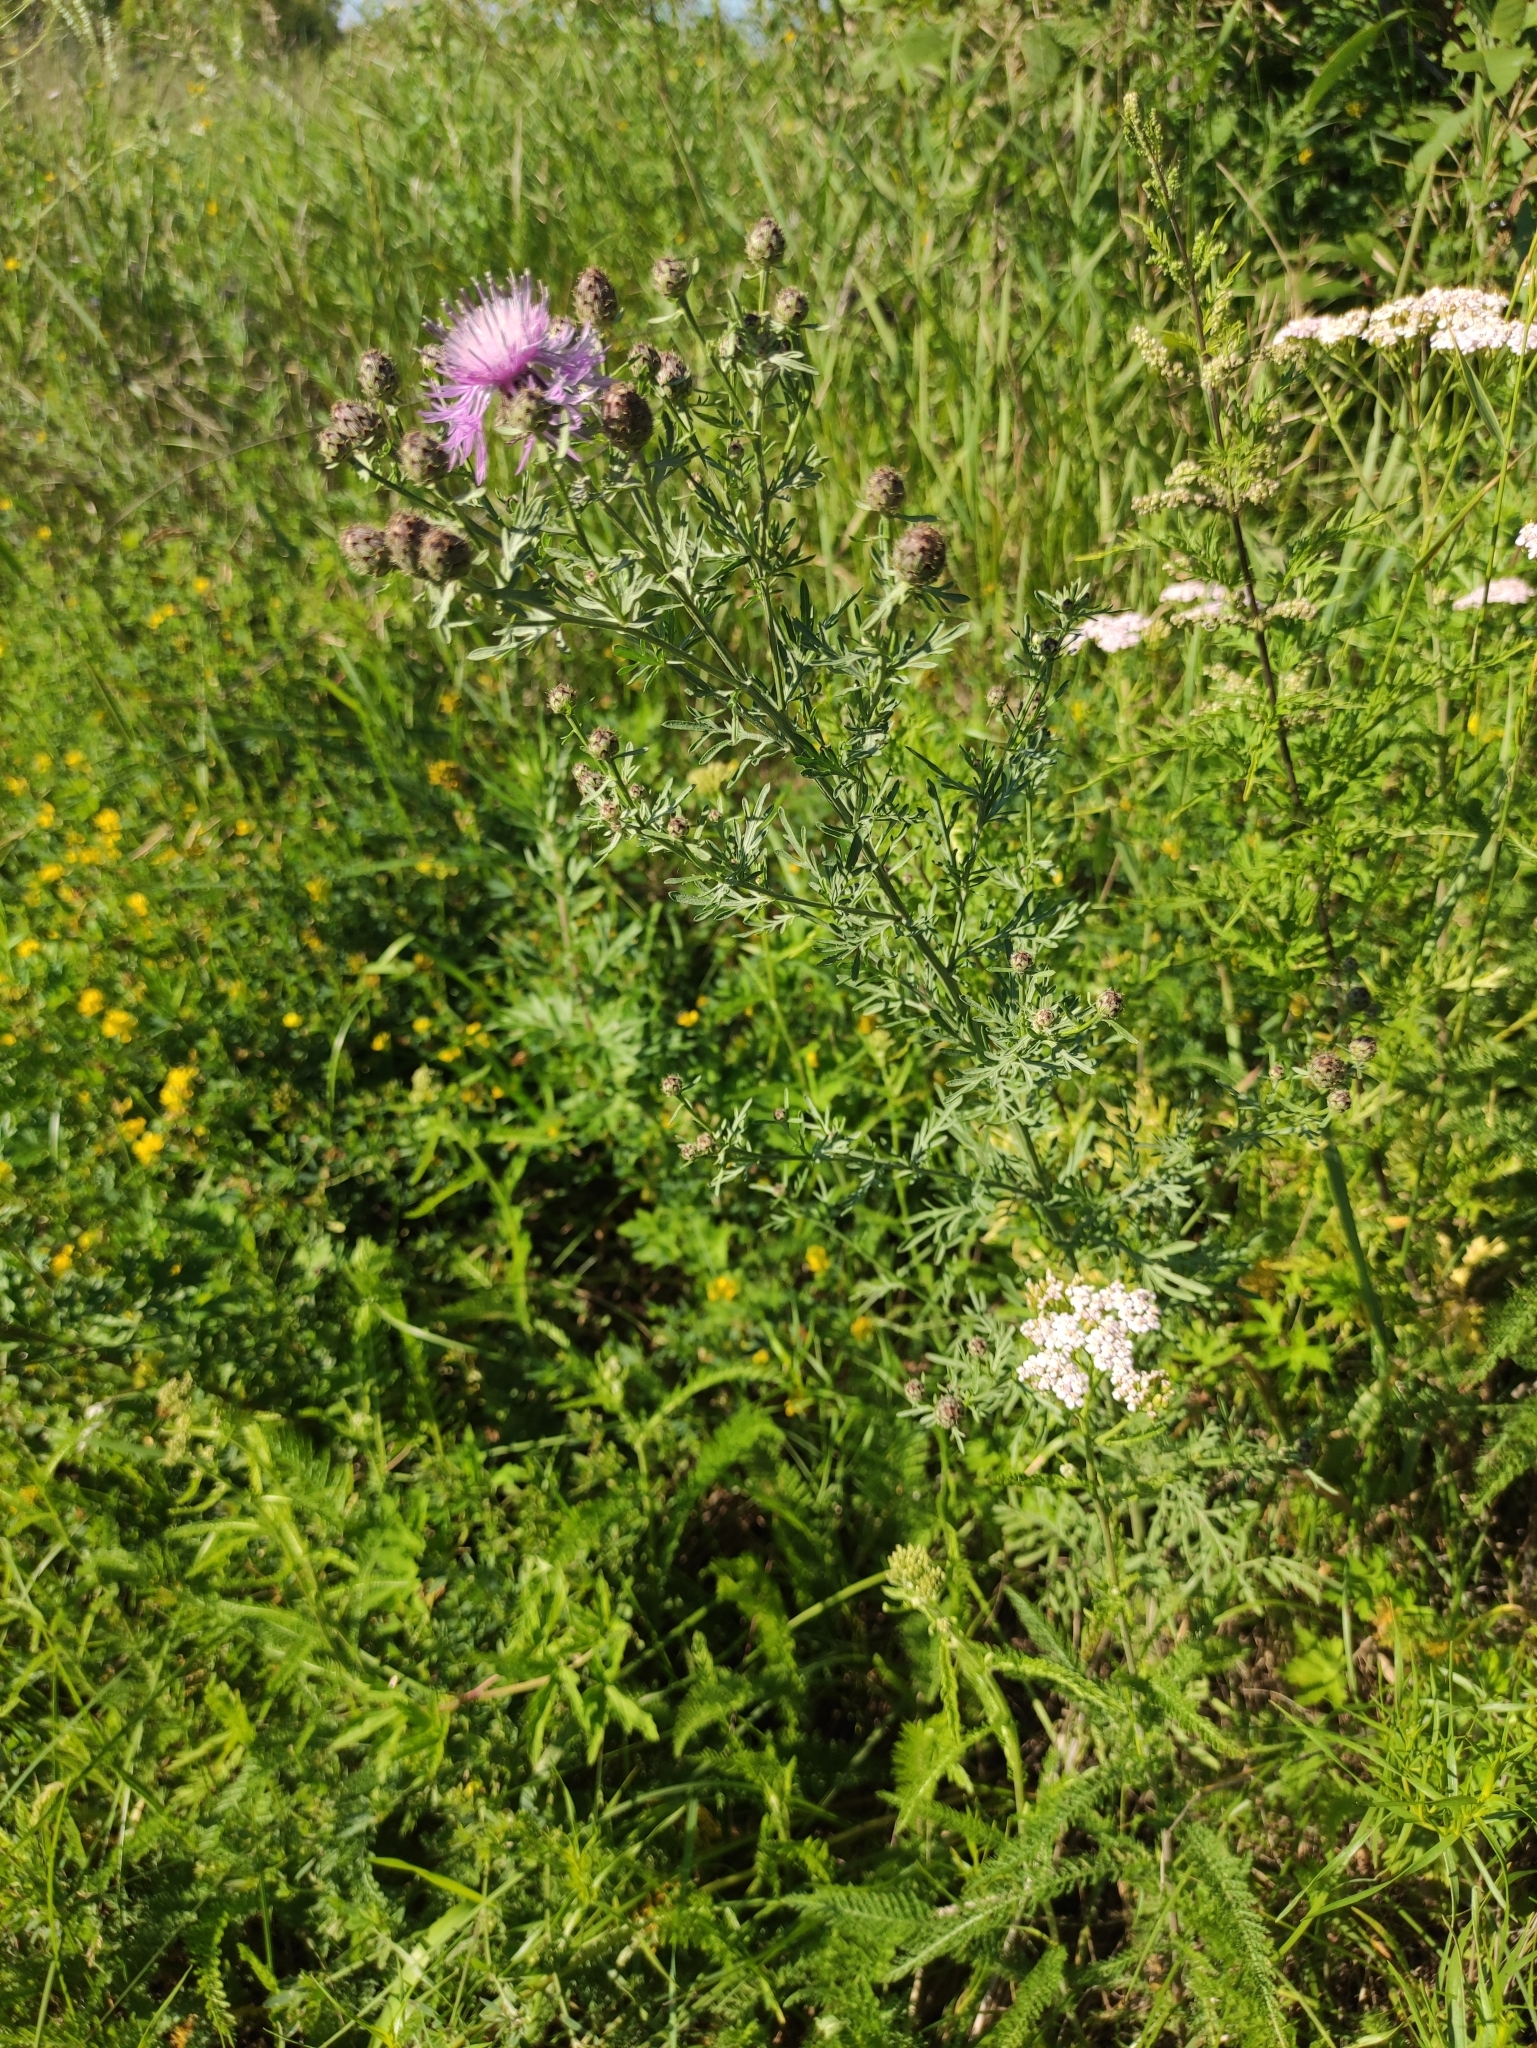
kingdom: Plantae
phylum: Tracheophyta
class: Magnoliopsida
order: Asterales
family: Asteraceae
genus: Centaurea
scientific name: Centaurea stoebe
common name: Spotted knapweed
